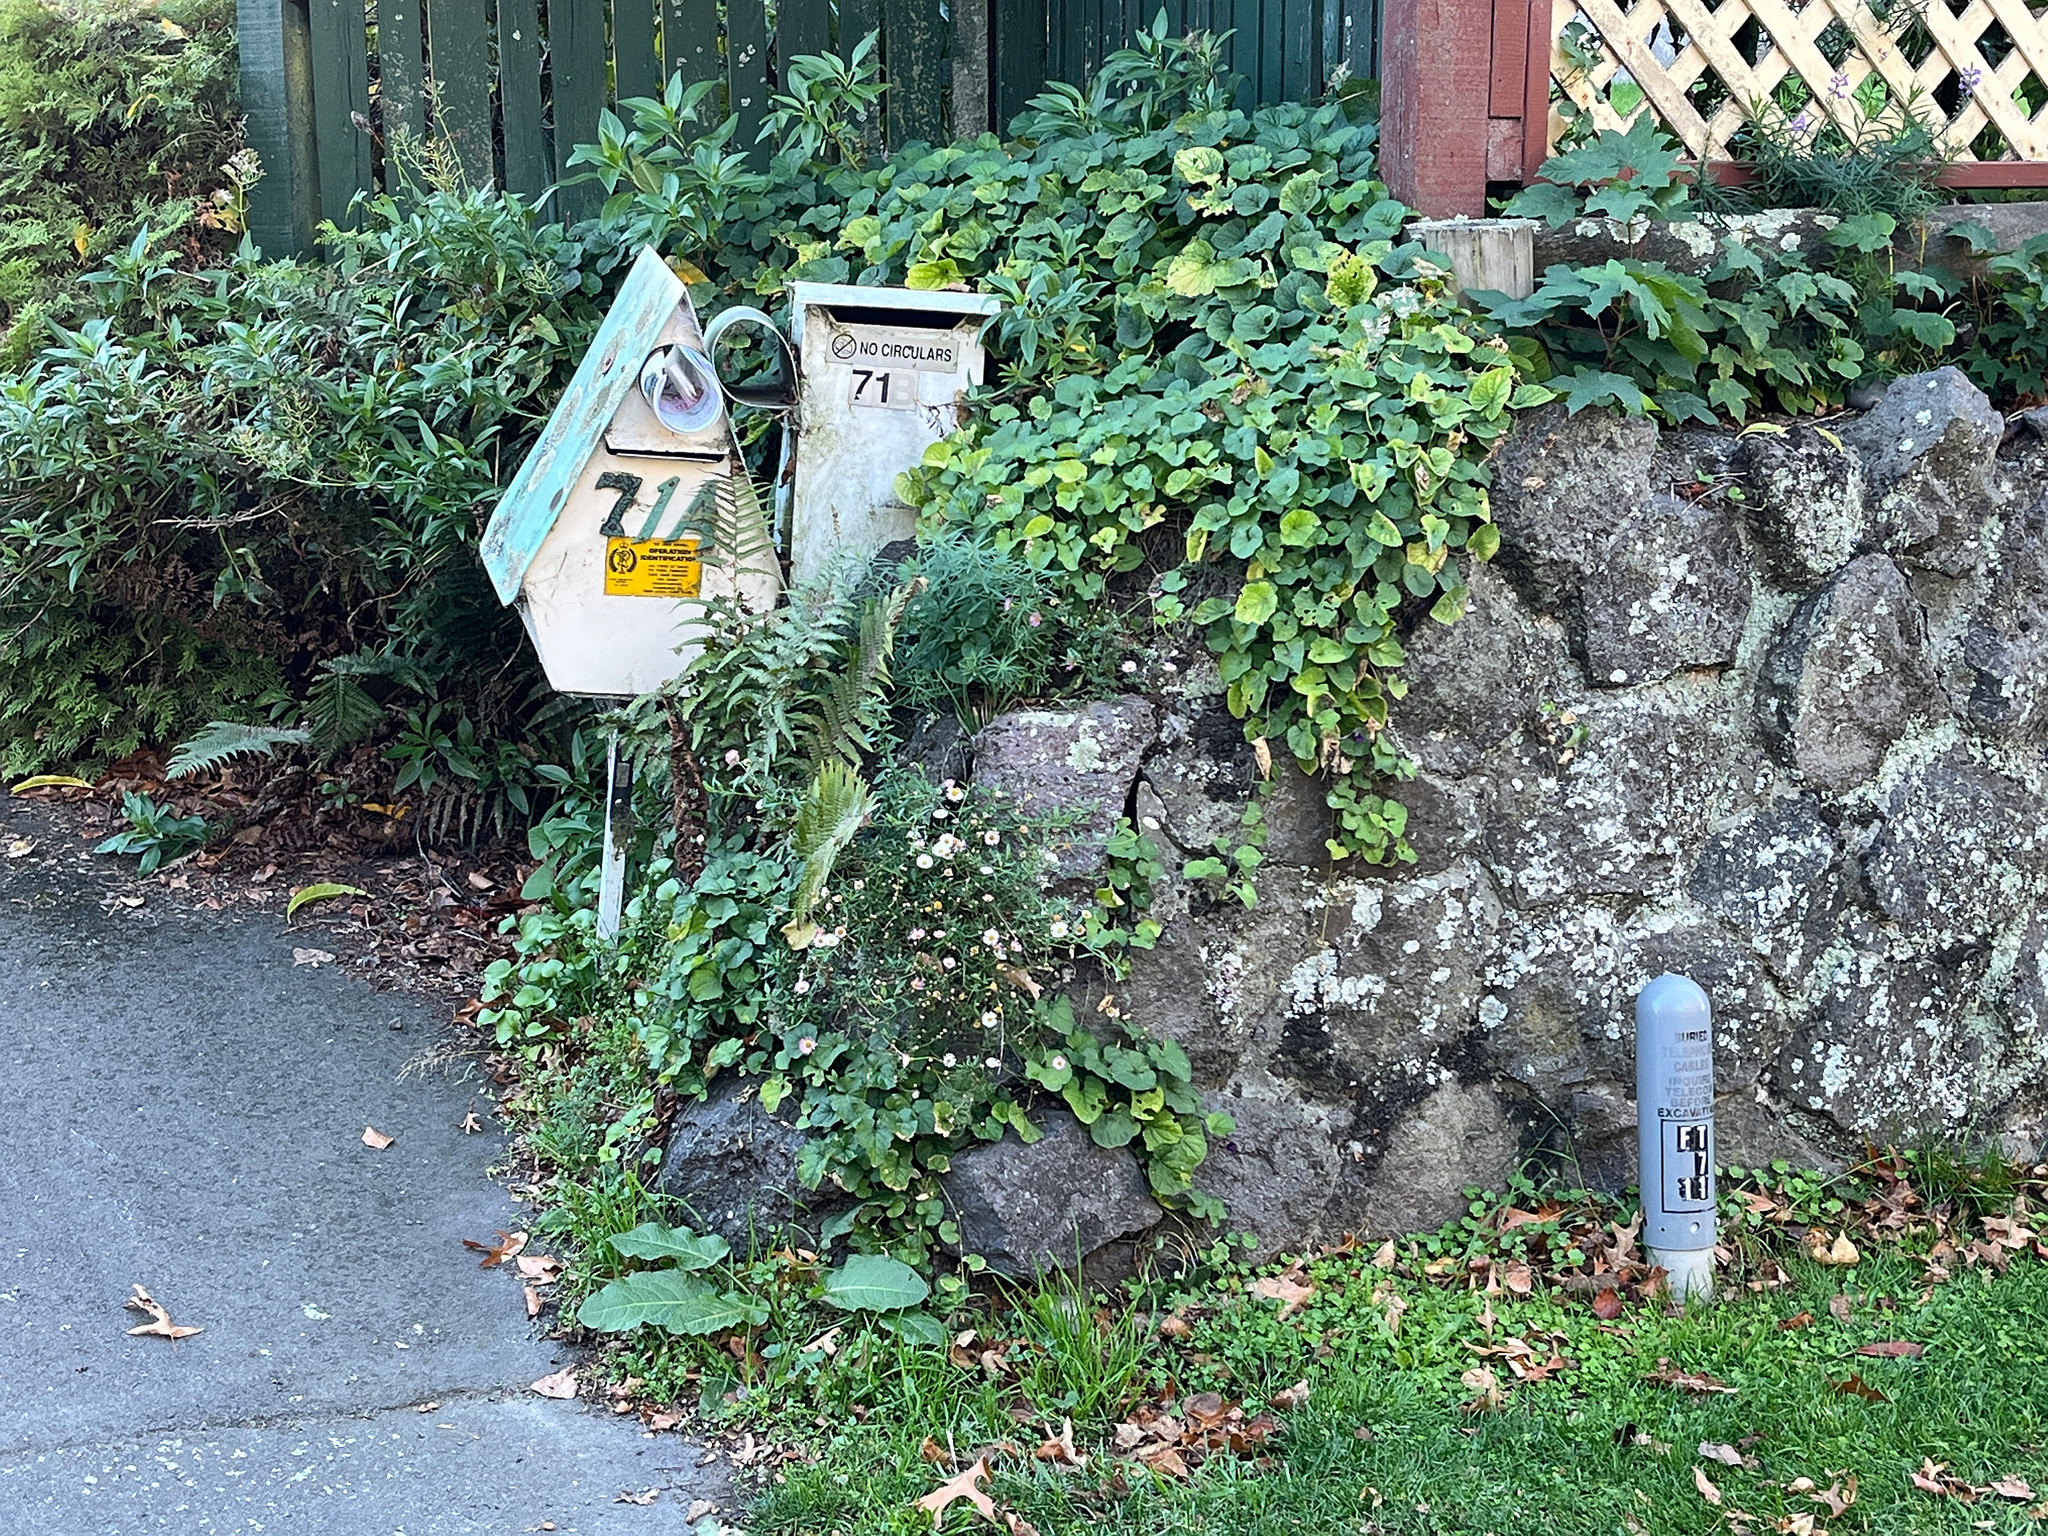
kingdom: Plantae
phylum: Tracheophyta
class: Magnoliopsida
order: Asterales
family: Asteraceae
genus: Erigeron
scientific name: Erigeron karvinskianus
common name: Mexican fleabane
